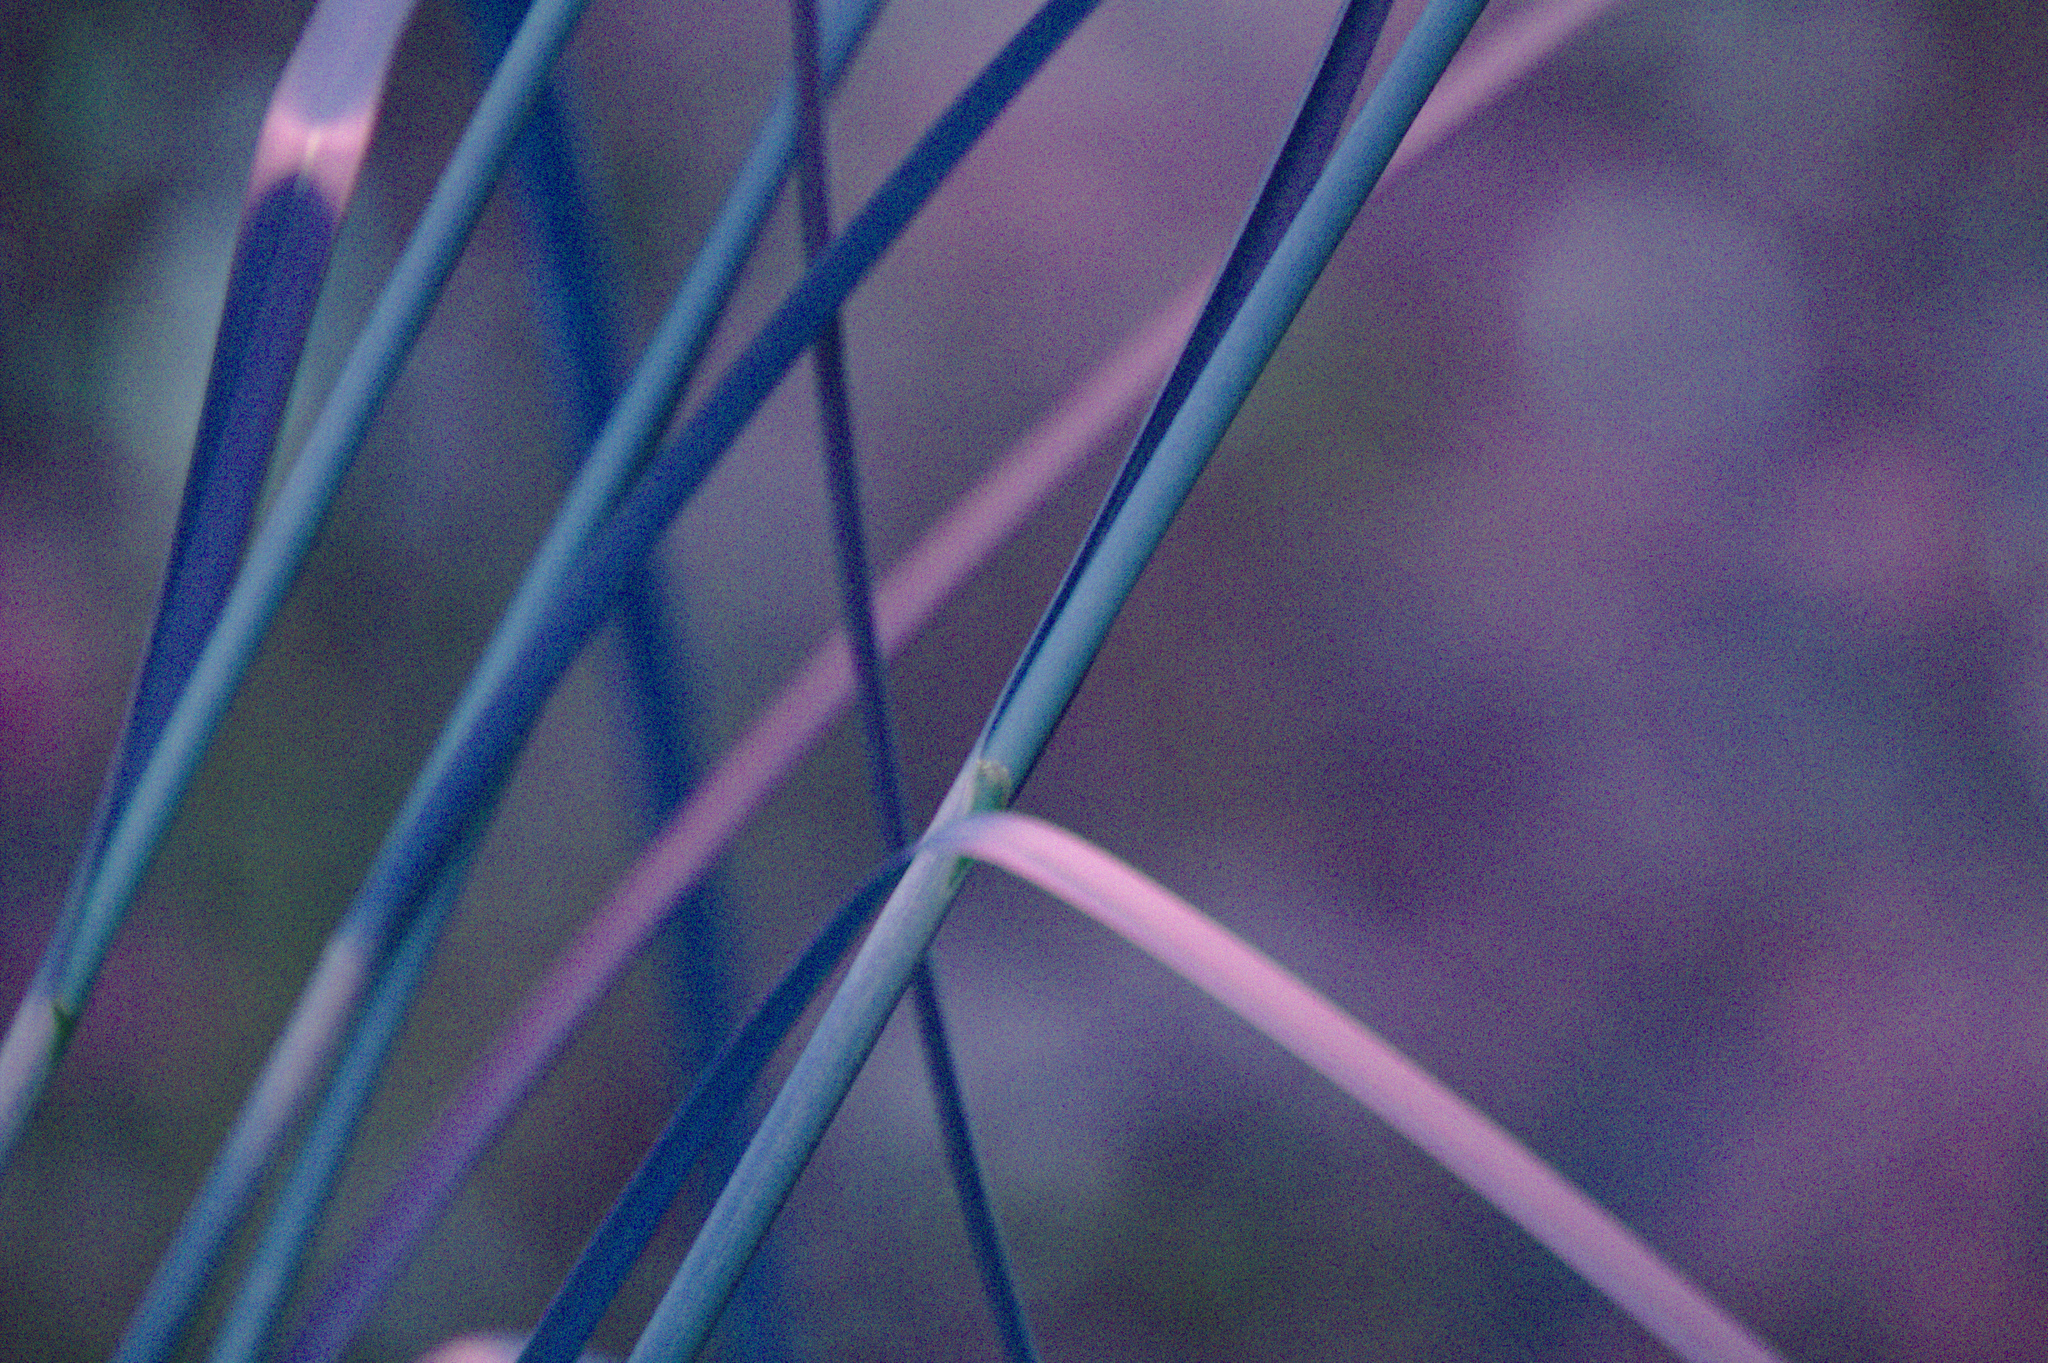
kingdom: Plantae
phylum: Tracheophyta
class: Liliopsida
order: Poales
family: Cyperaceae
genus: Scirpus
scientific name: Scirpus atrocinctus
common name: Black-girdled bulrush
